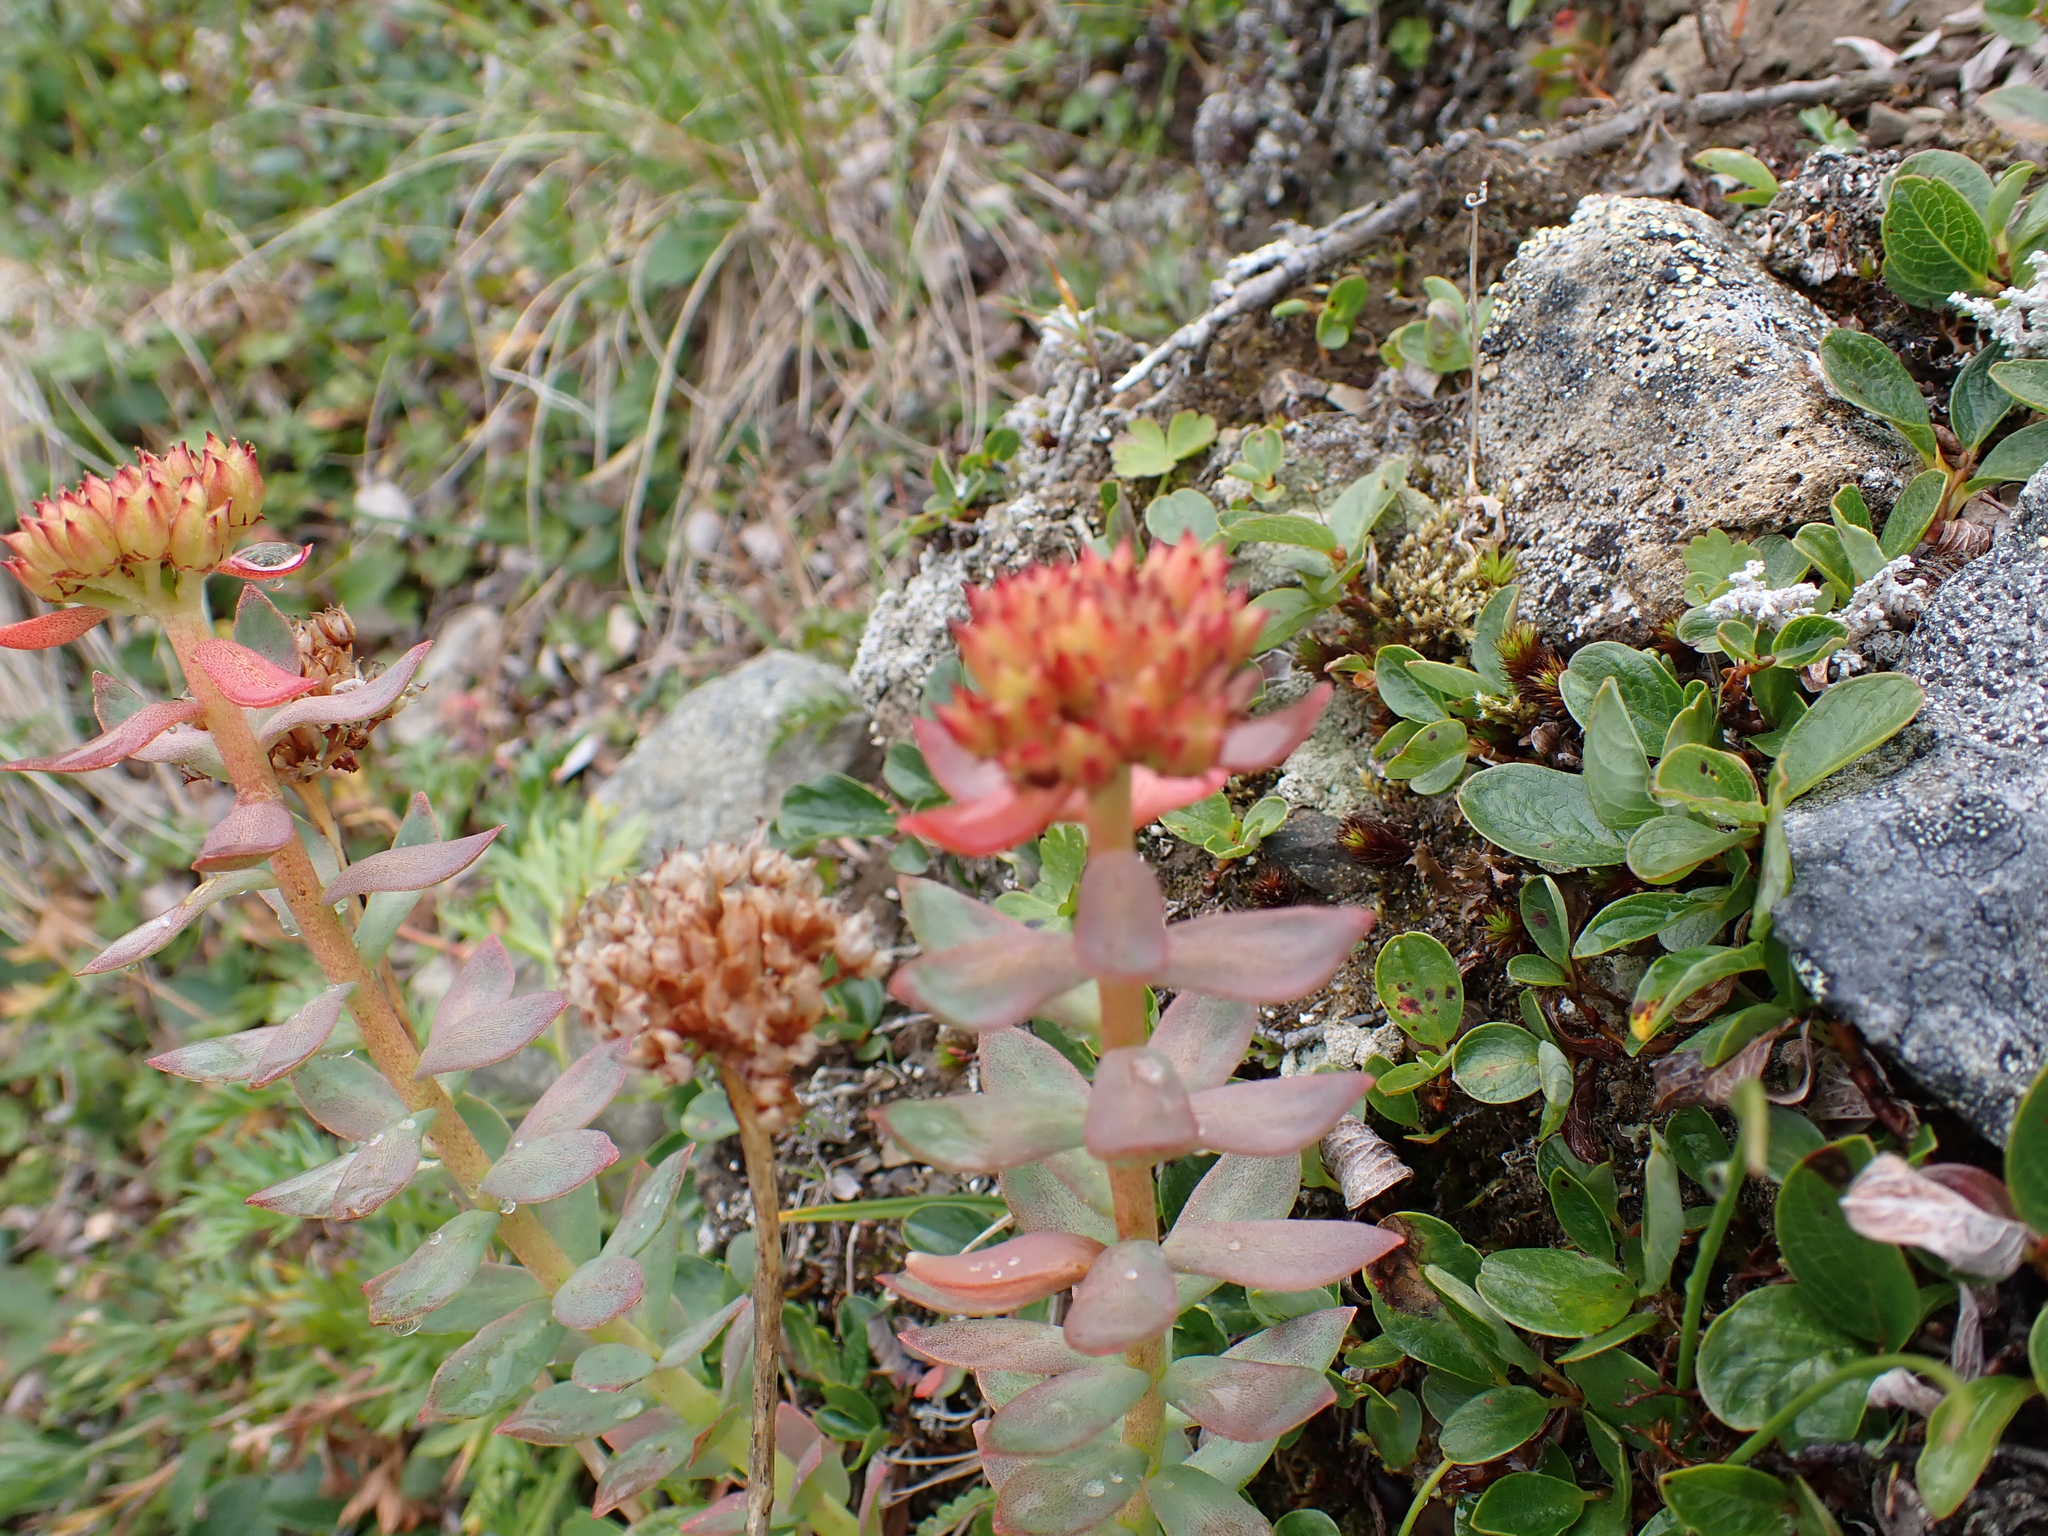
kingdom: Plantae
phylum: Tracheophyta
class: Magnoliopsida
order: Saxifragales
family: Crassulaceae
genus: Rhodiola
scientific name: Rhodiola integrifolia
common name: Western roseroot
